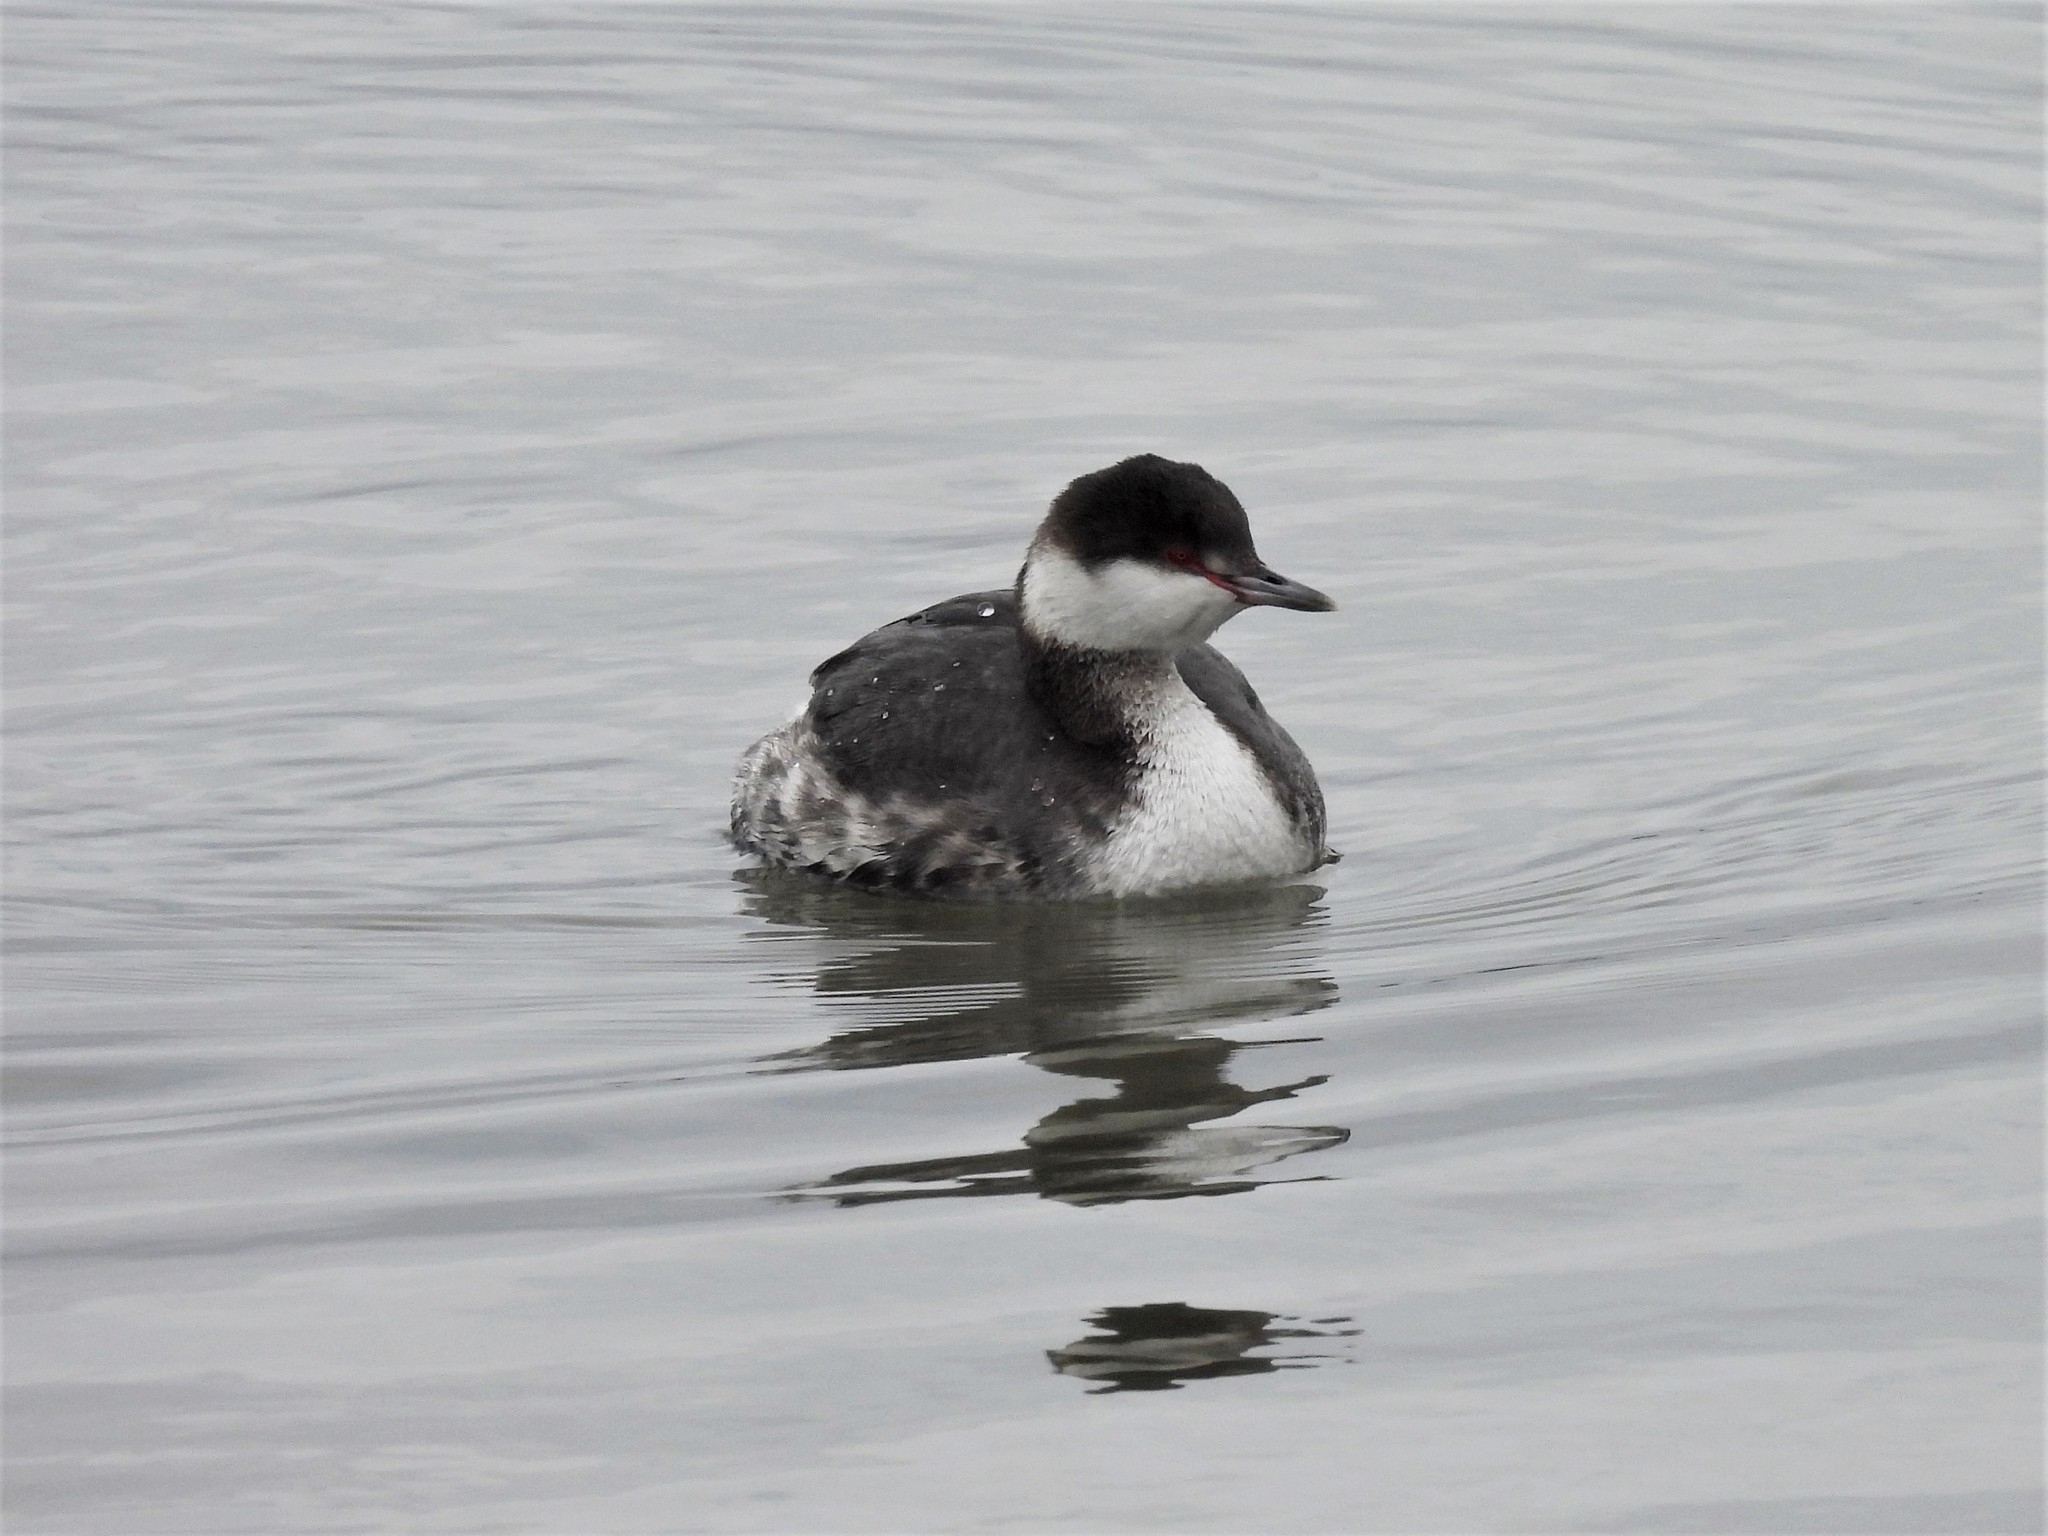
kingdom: Animalia
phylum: Chordata
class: Aves
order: Podicipediformes
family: Podicipedidae
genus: Podiceps
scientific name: Podiceps auritus
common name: Horned grebe
